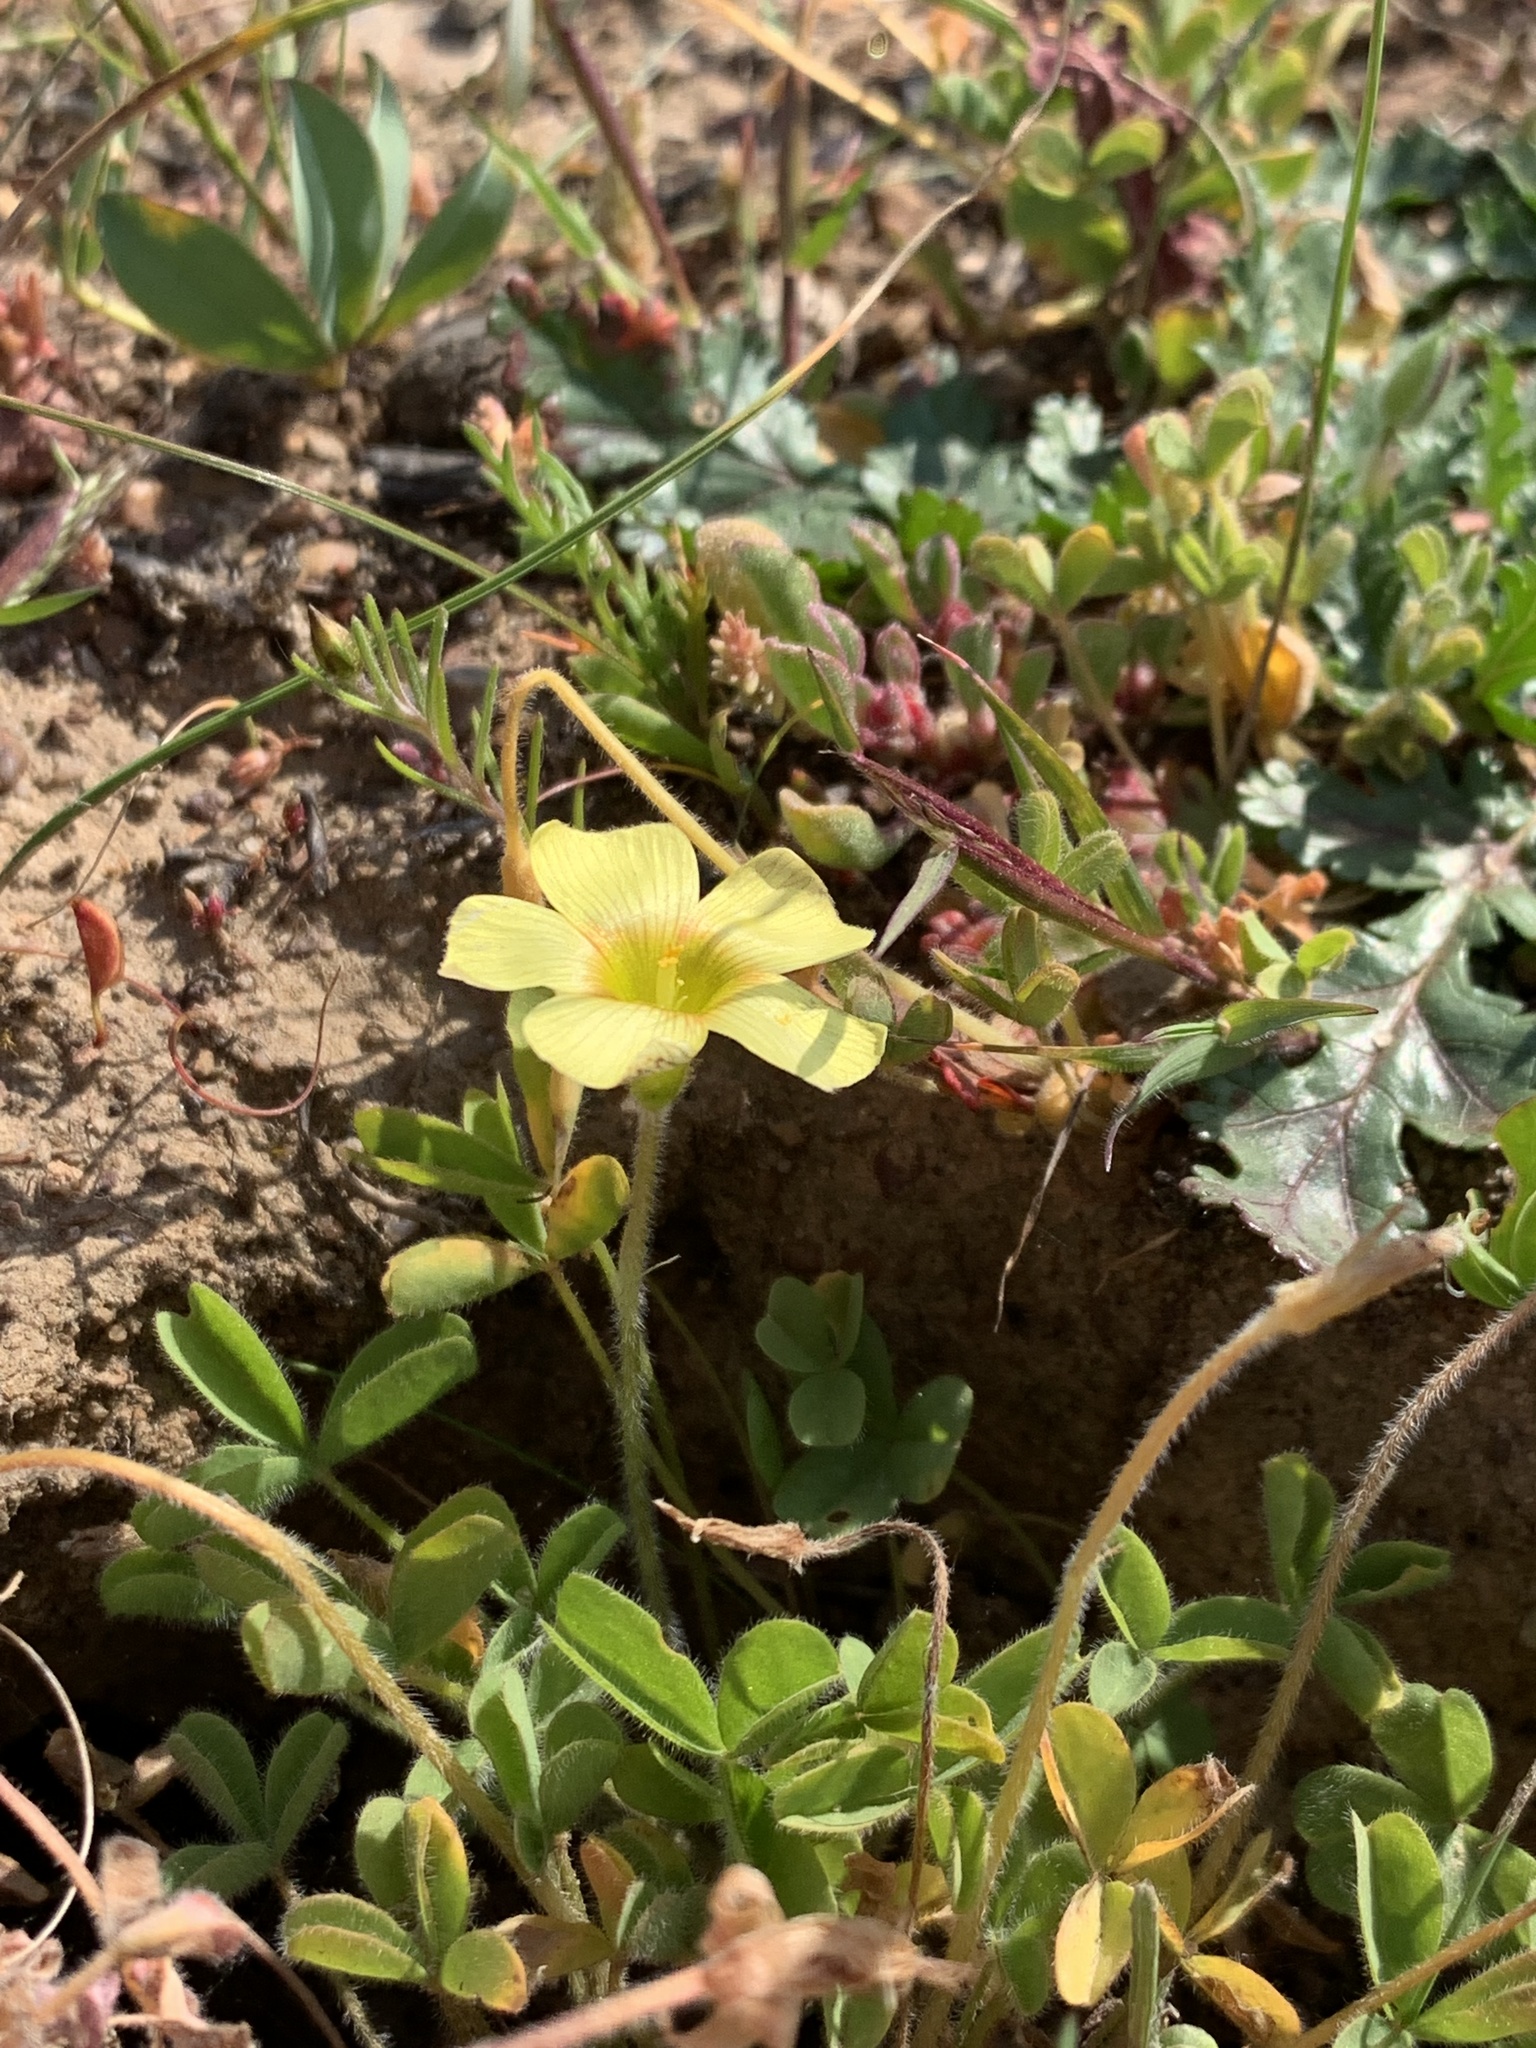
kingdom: Plantae
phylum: Tracheophyta
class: Magnoliopsida
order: Oxalidales
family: Oxalidaceae
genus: Oxalis
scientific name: Oxalis obtusa
